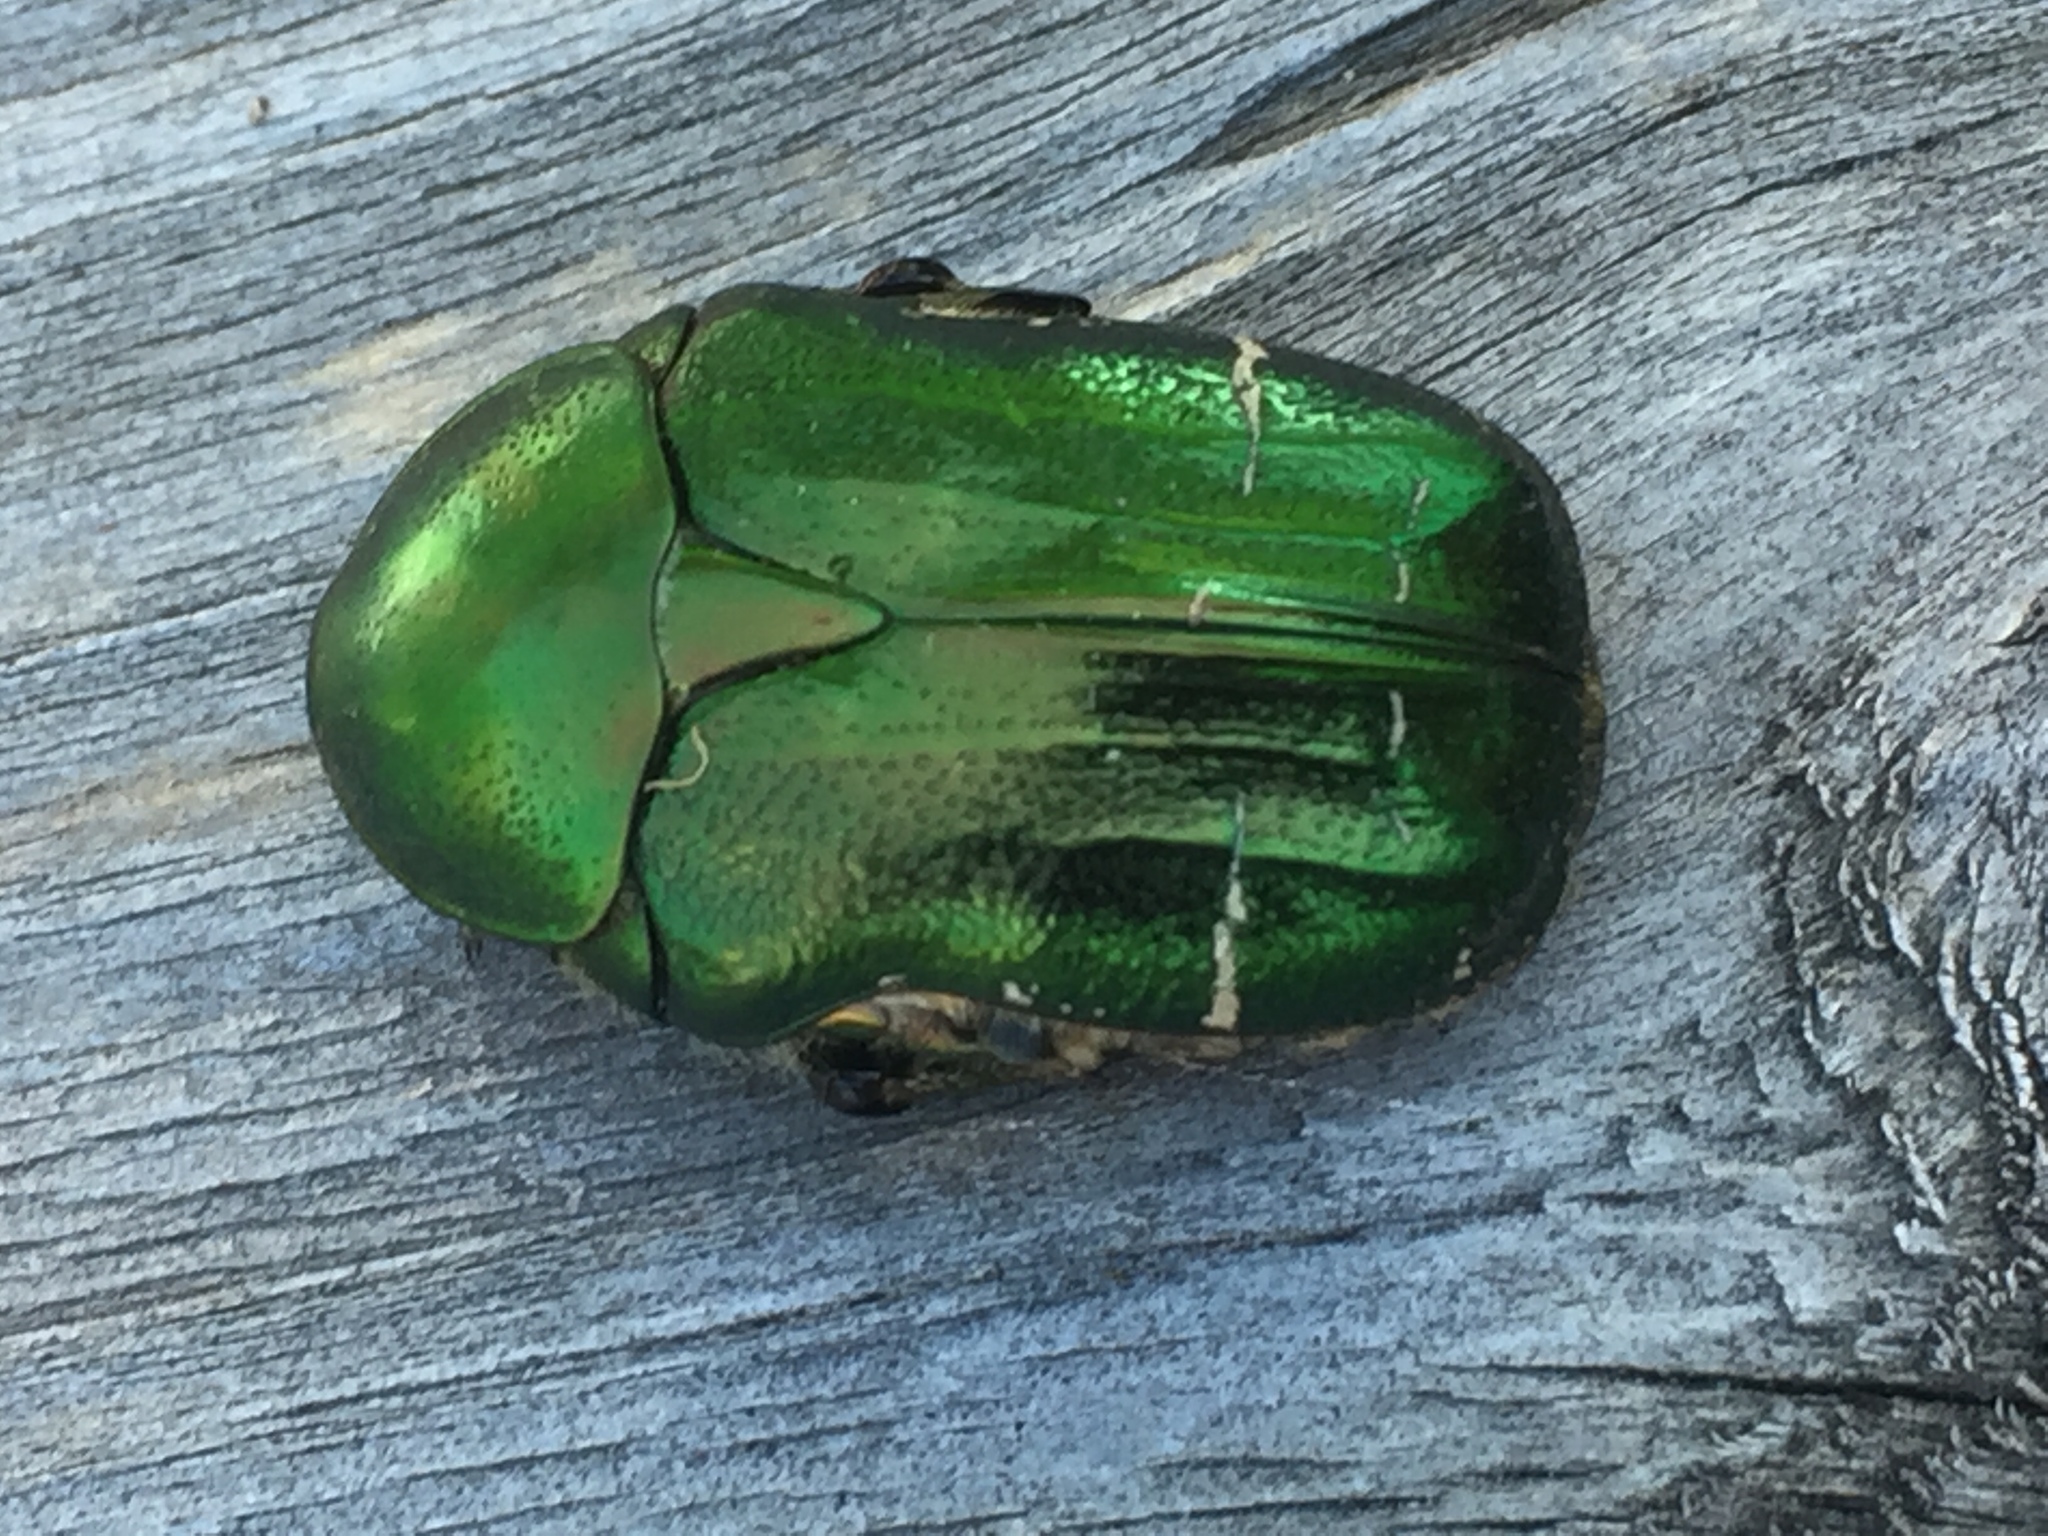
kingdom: Animalia
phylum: Arthropoda
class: Insecta
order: Coleoptera
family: Scarabaeidae
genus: Cetonia
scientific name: Cetonia aurata
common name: Rose chafer
